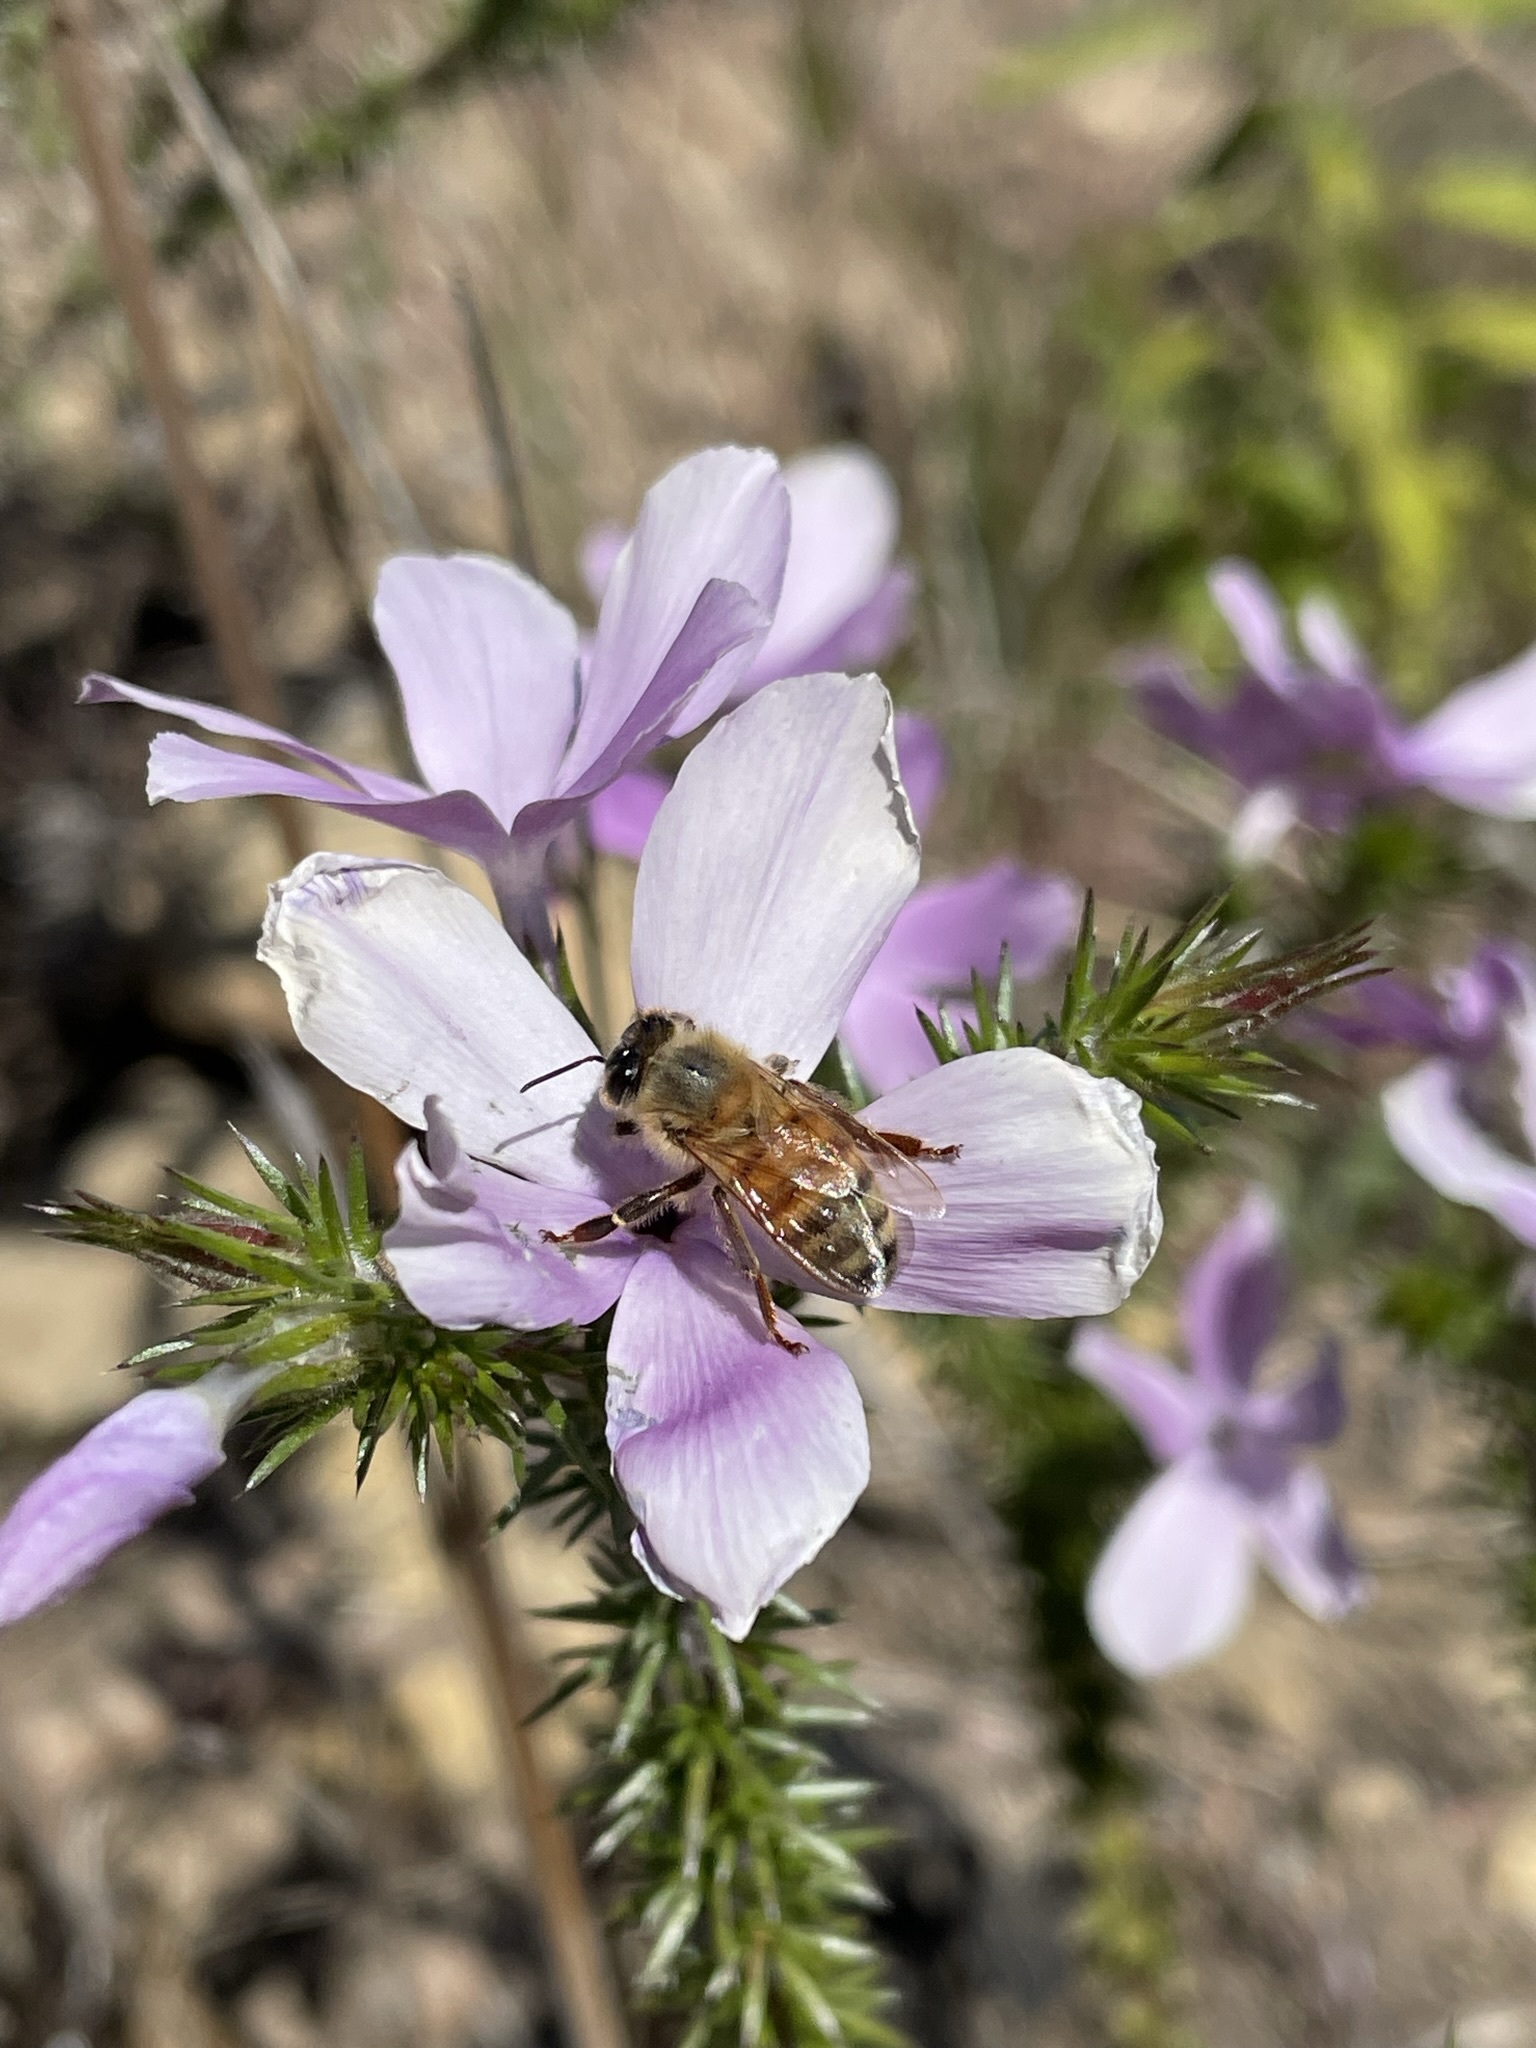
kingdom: Animalia
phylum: Arthropoda
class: Insecta
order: Hymenoptera
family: Apidae
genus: Apis
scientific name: Apis mellifera
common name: Honey bee
